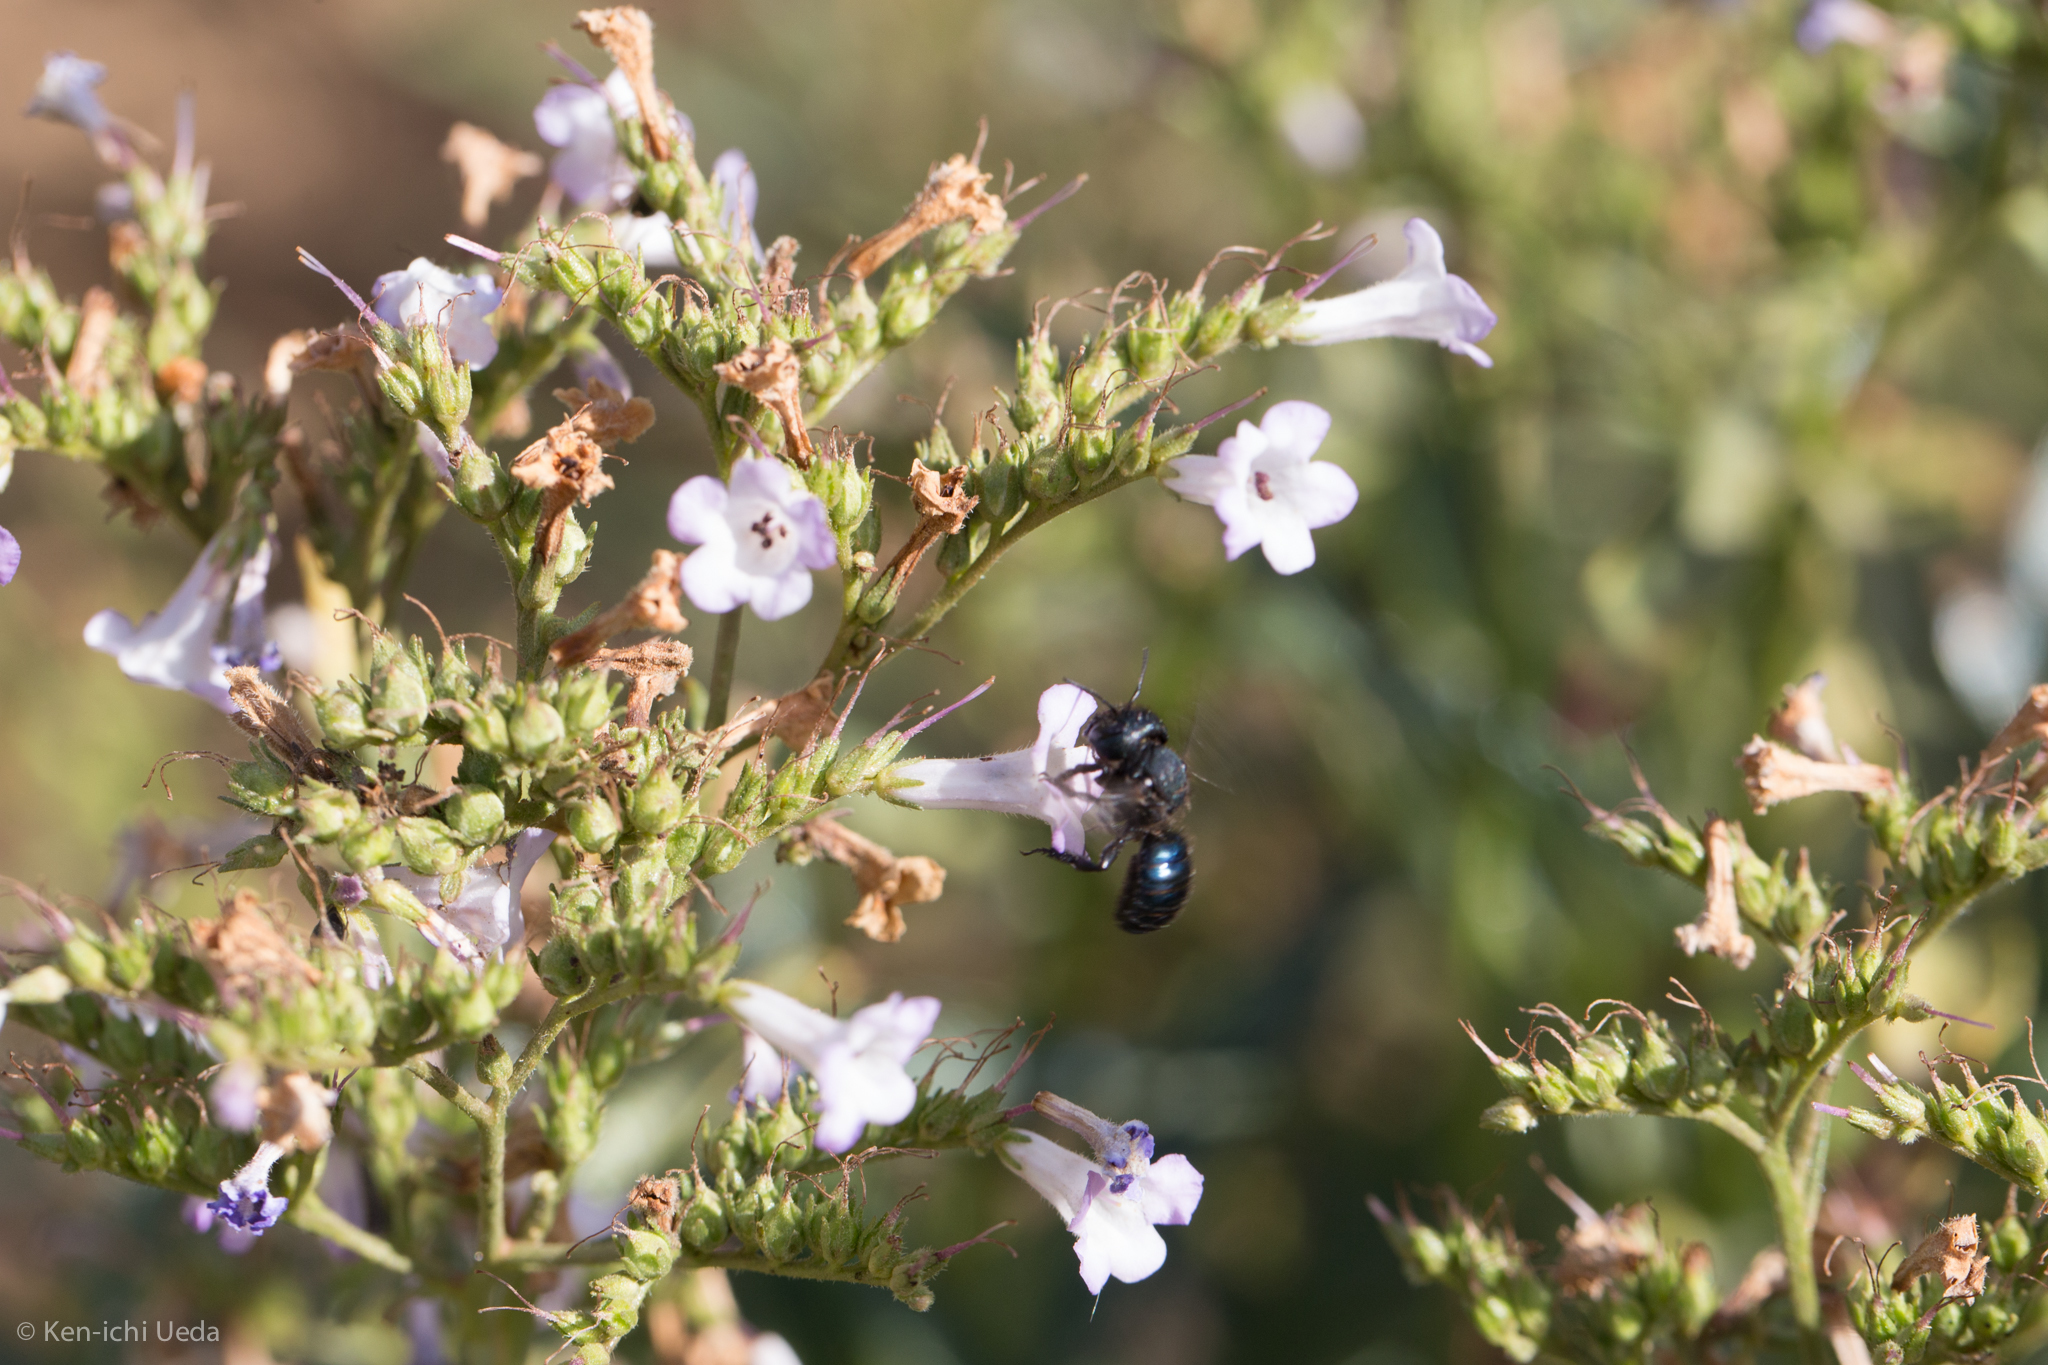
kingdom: Plantae
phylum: Tracheophyta
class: Magnoliopsida
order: Boraginales
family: Namaceae
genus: Eriodictyon
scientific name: Eriodictyon californicum
